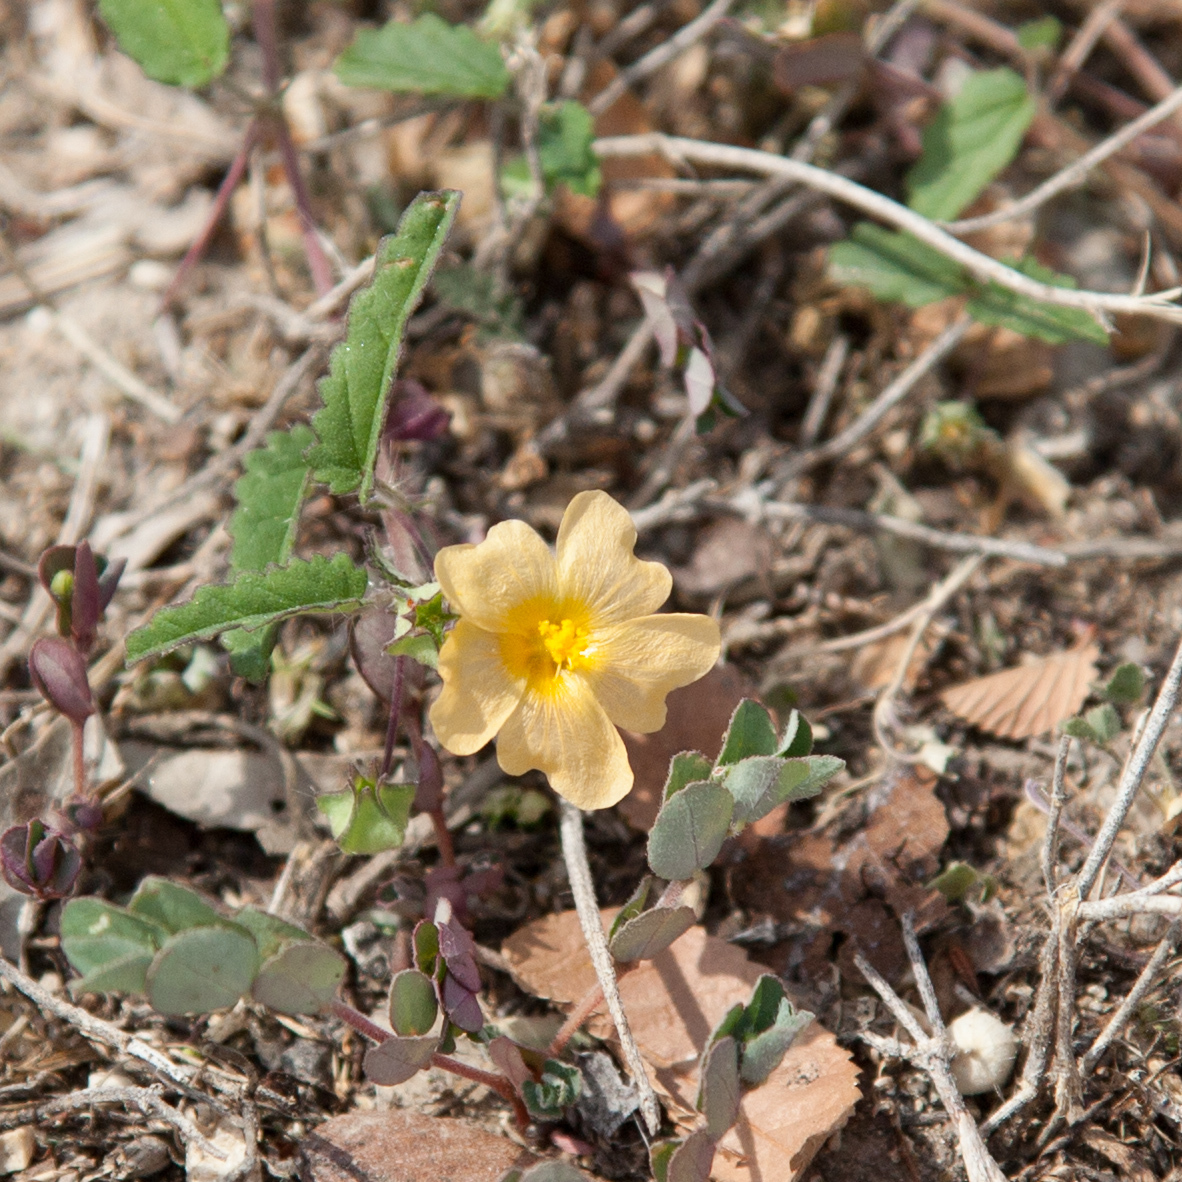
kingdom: Plantae
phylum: Tracheophyta
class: Magnoliopsida
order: Malvales
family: Malvaceae
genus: Sida
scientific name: Sida abutilifolia
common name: Spreading fanpetals
